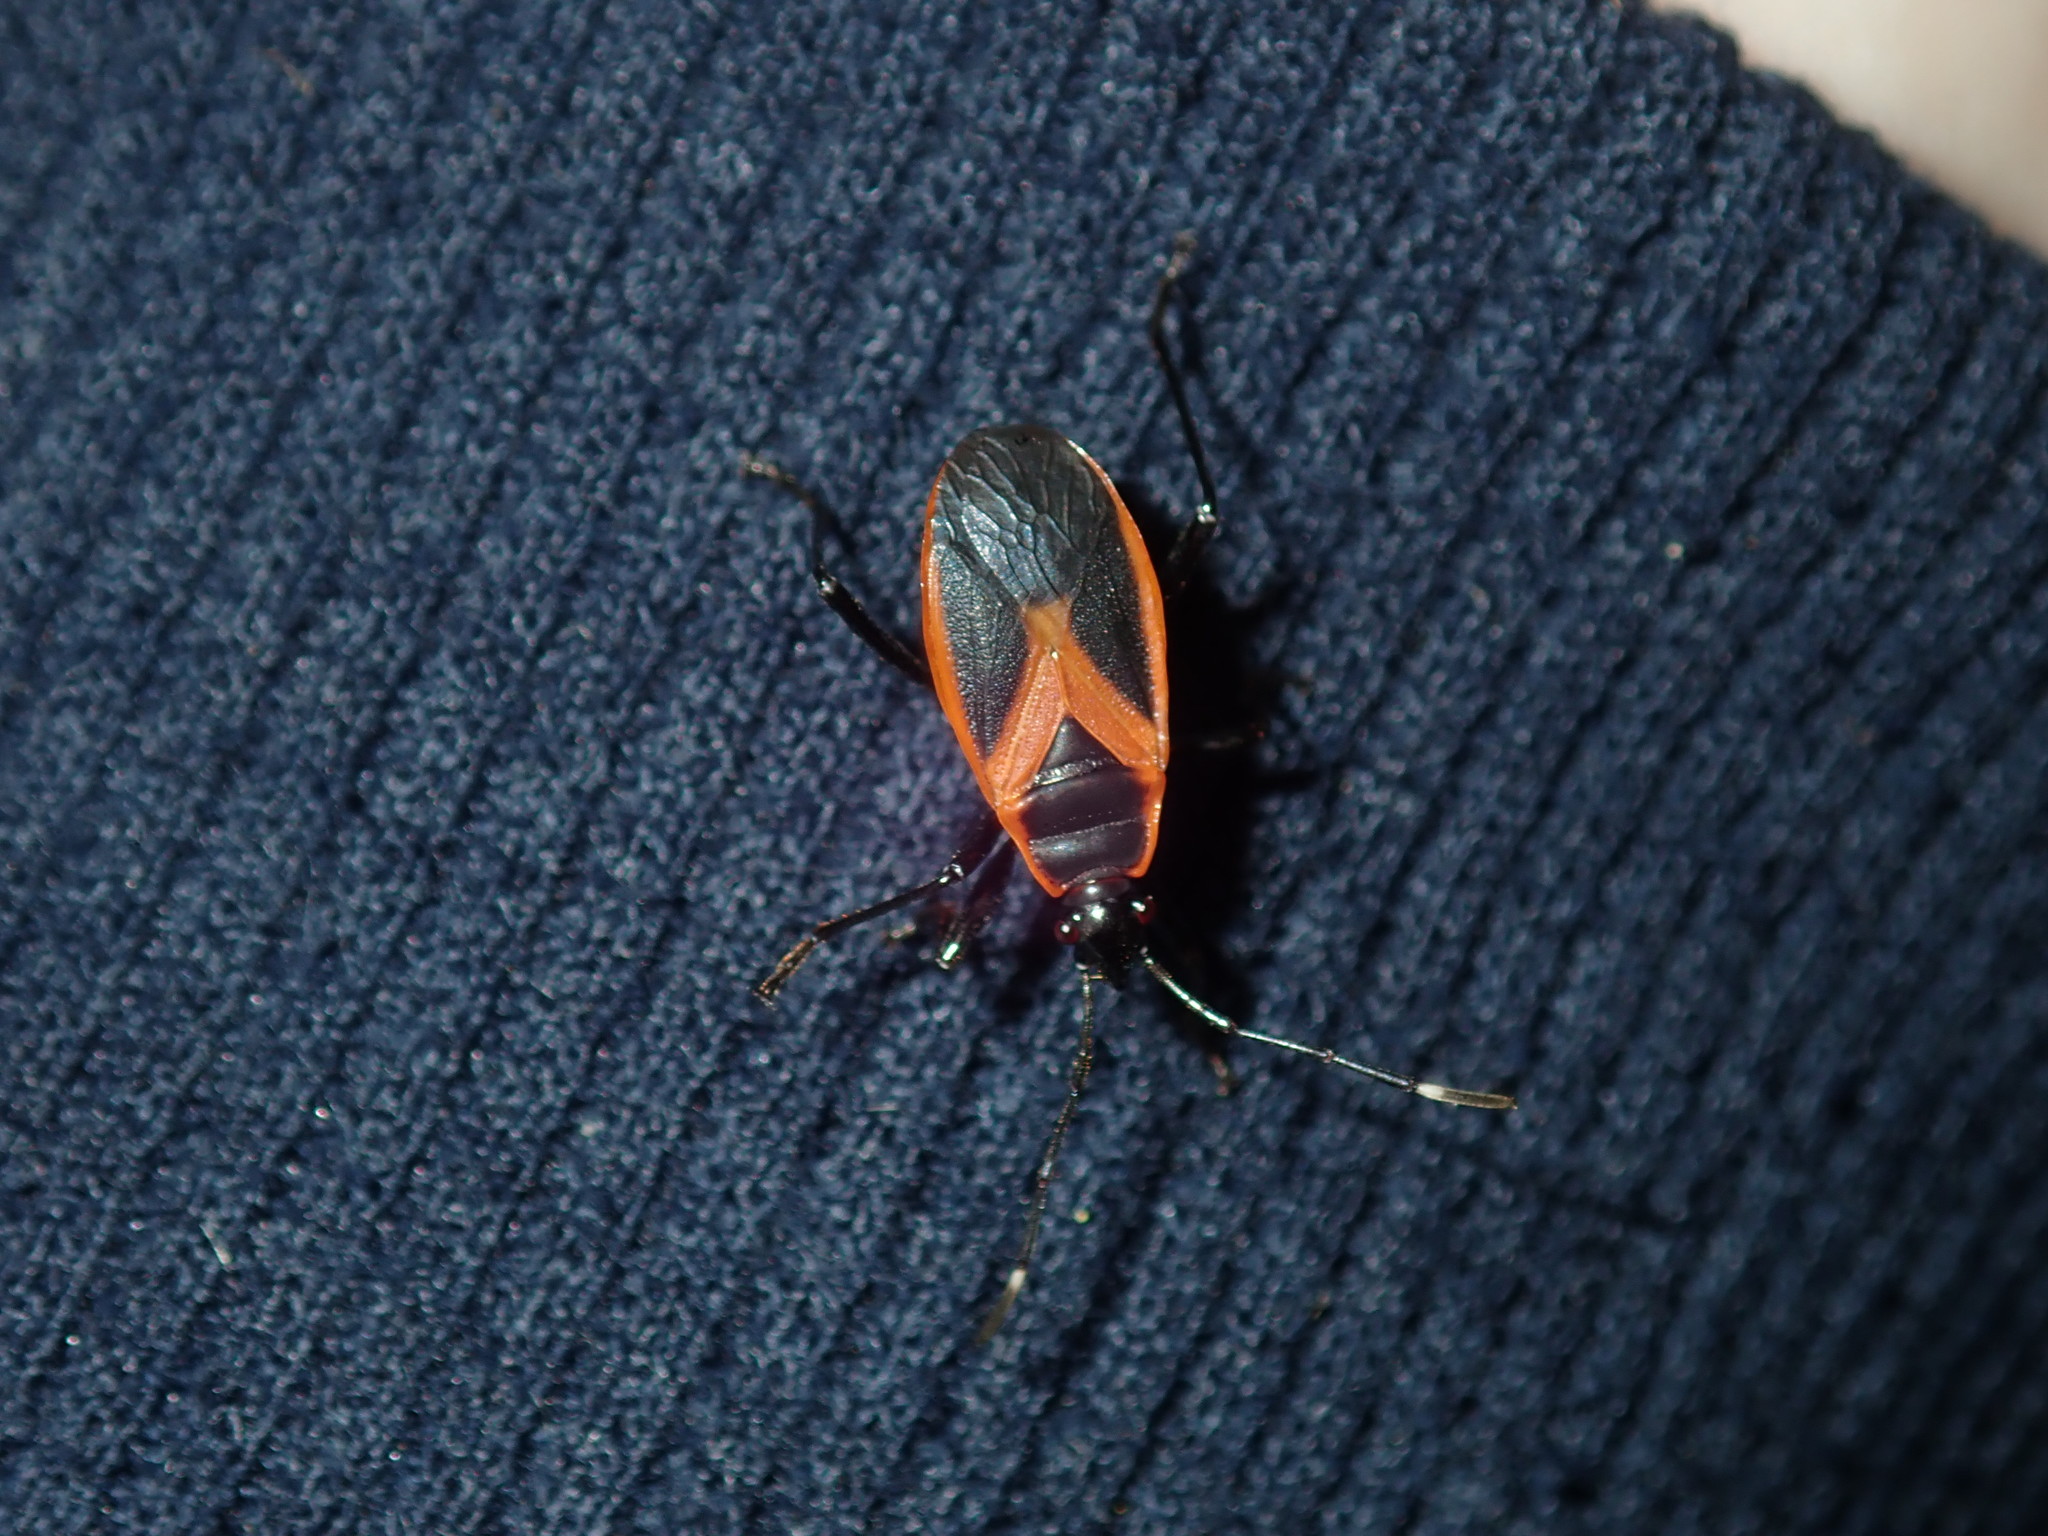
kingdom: Animalia
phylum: Arthropoda
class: Insecta
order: Hemiptera
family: Pyrrhocoridae
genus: Dindymus
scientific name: Dindymus
